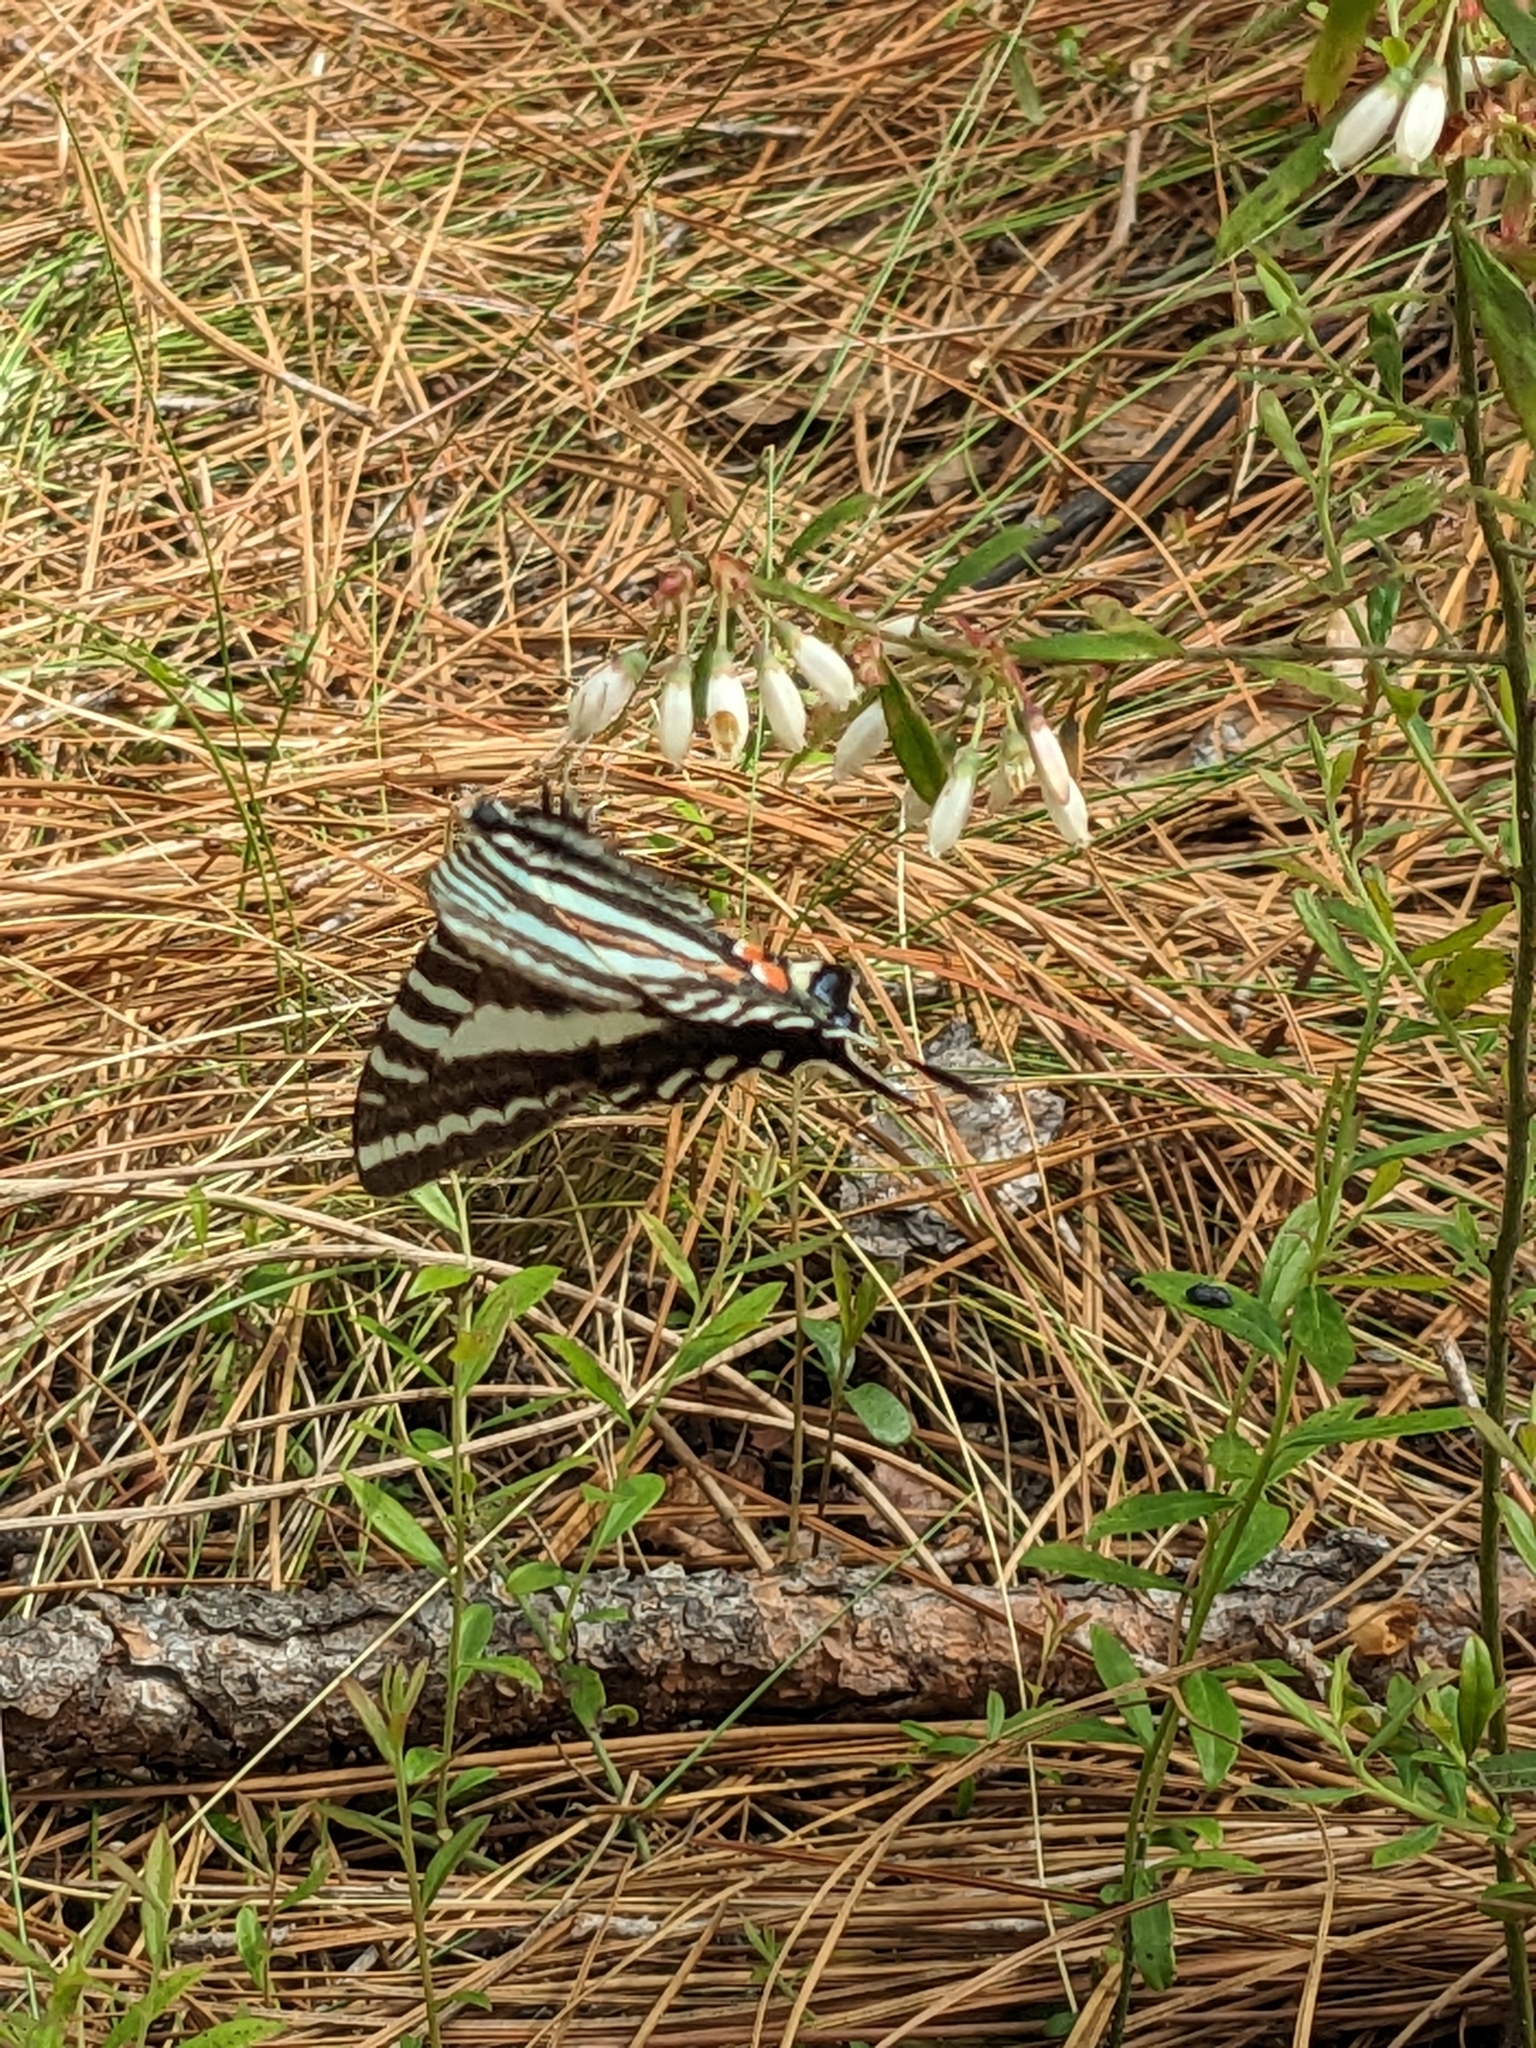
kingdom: Animalia
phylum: Arthropoda
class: Insecta
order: Lepidoptera
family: Papilionidae
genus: Protographium
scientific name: Protographium marcellus
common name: Zebra swallowtail
